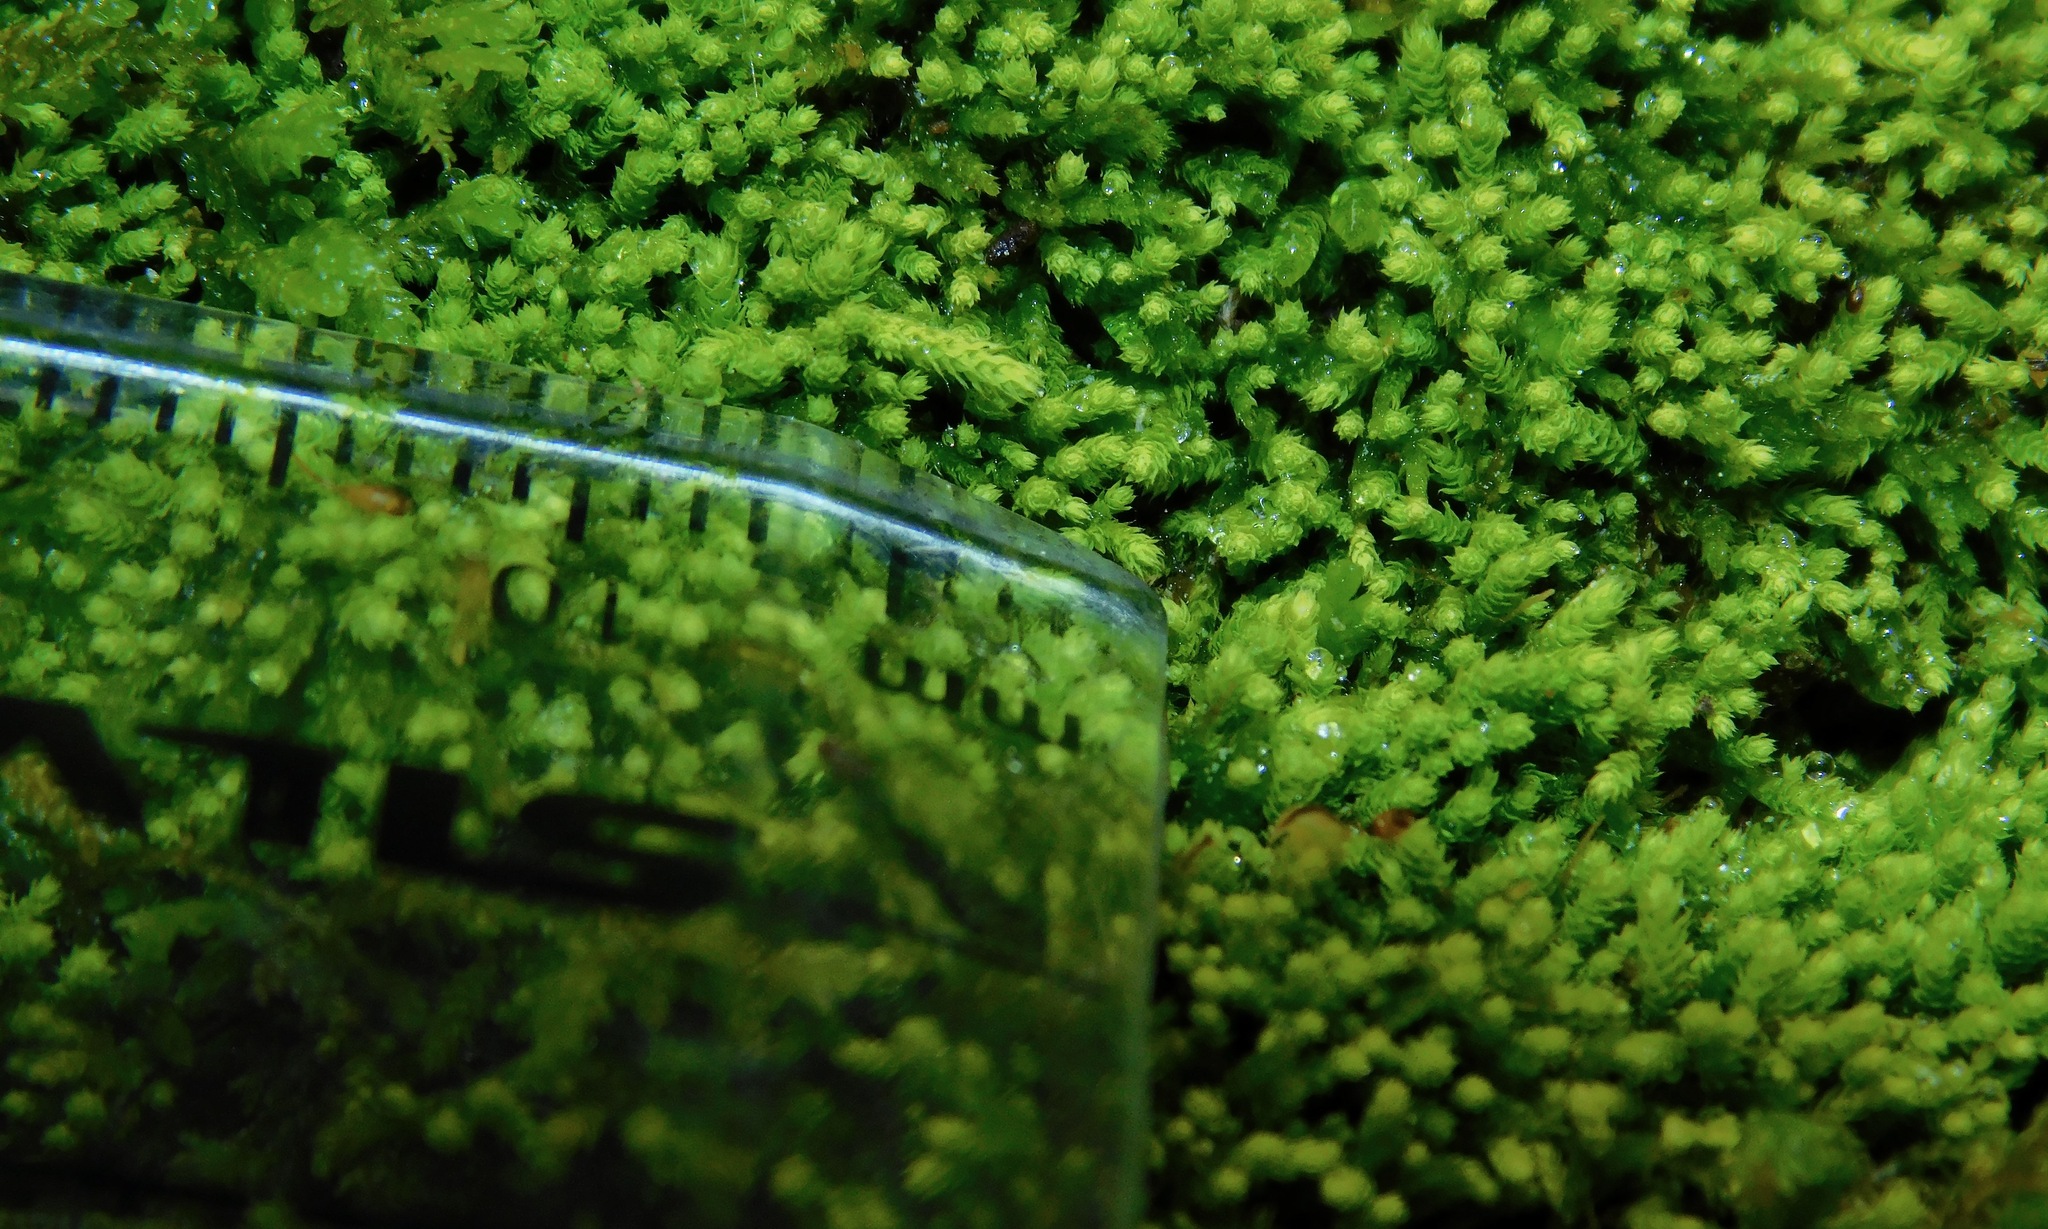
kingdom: Plantae
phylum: Bryophyta
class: Bryopsida
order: Hypnales
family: Brachytheciaceae
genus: Claopodium
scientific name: Claopodium rostratum
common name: Yellow yarn moss
